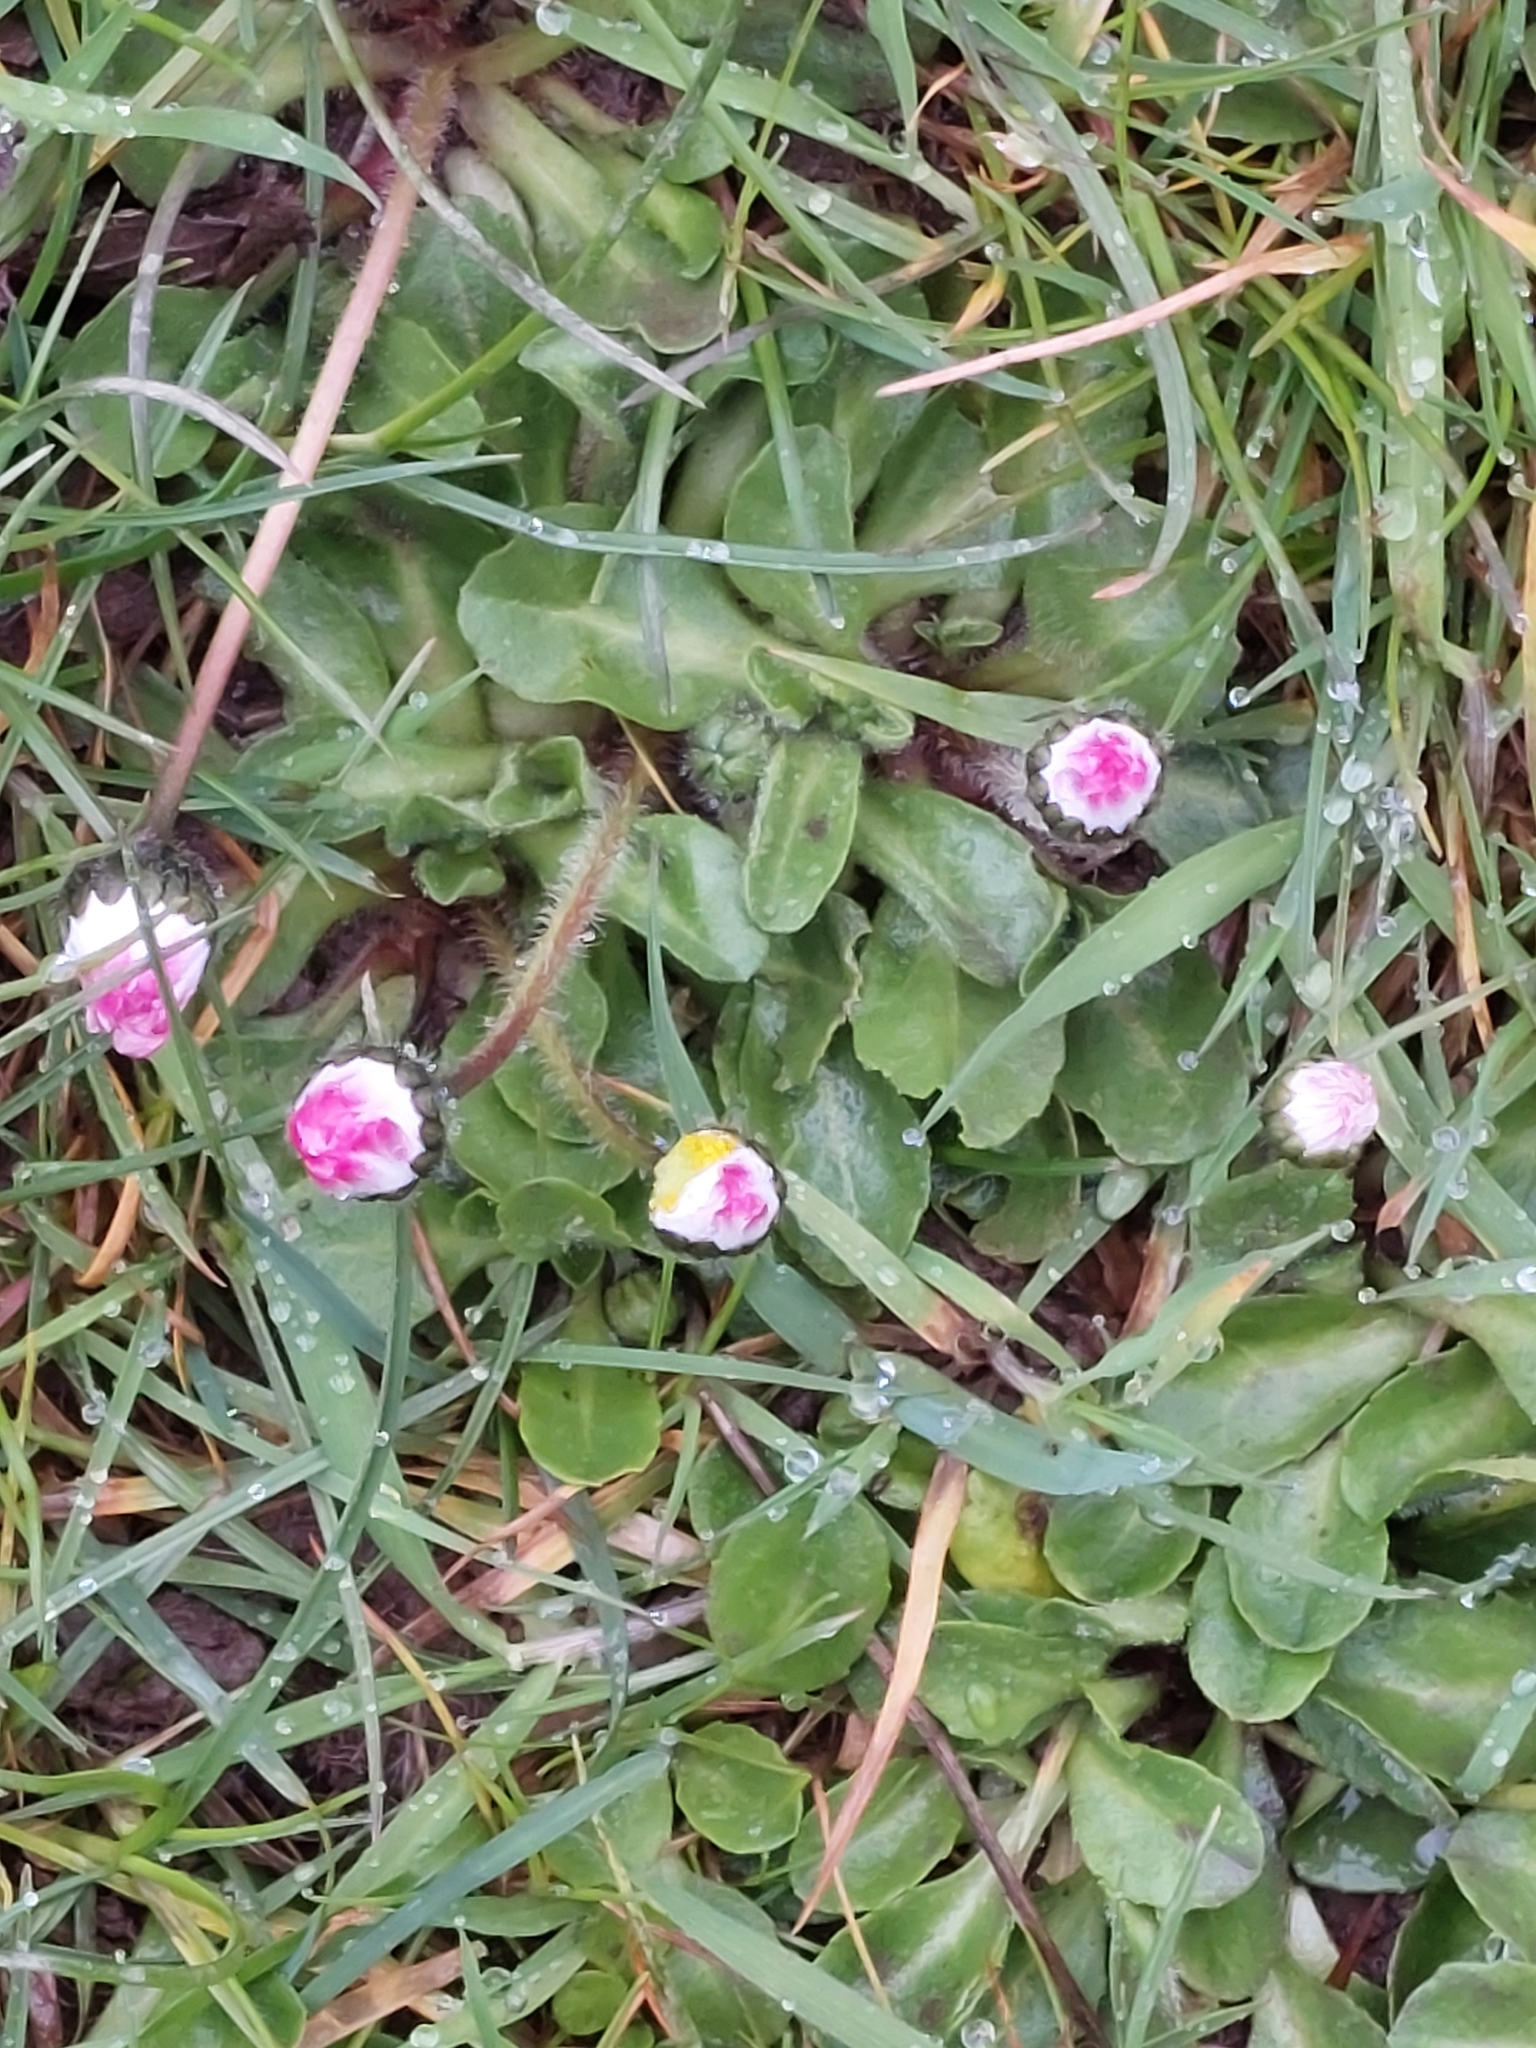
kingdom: Plantae
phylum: Tracheophyta
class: Magnoliopsida
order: Asterales
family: Asteraceae
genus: Bellis
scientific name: Bellis perennis
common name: Lawndaisy
